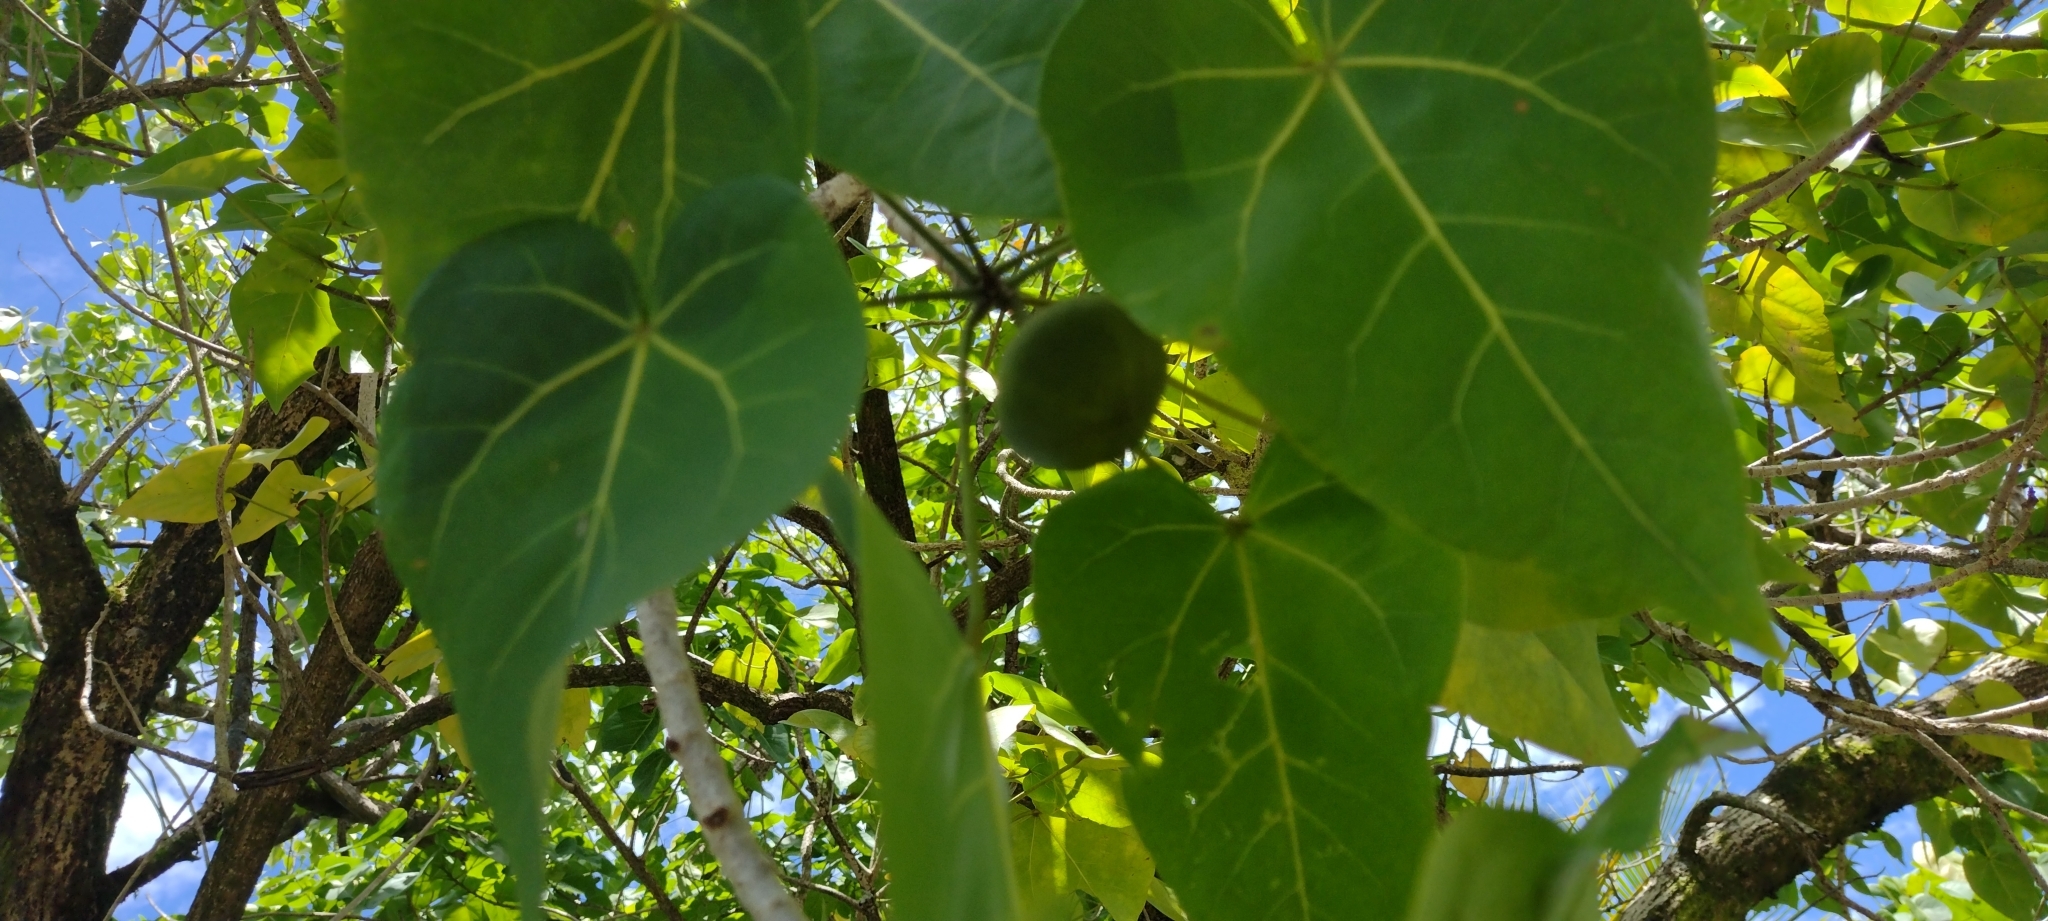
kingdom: Plantae
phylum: Tracheophyta
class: Magnoliopsida
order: Malvales
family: Malvaceae
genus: Thespesia
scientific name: Thespesia populnea
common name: Seaside mahoe
